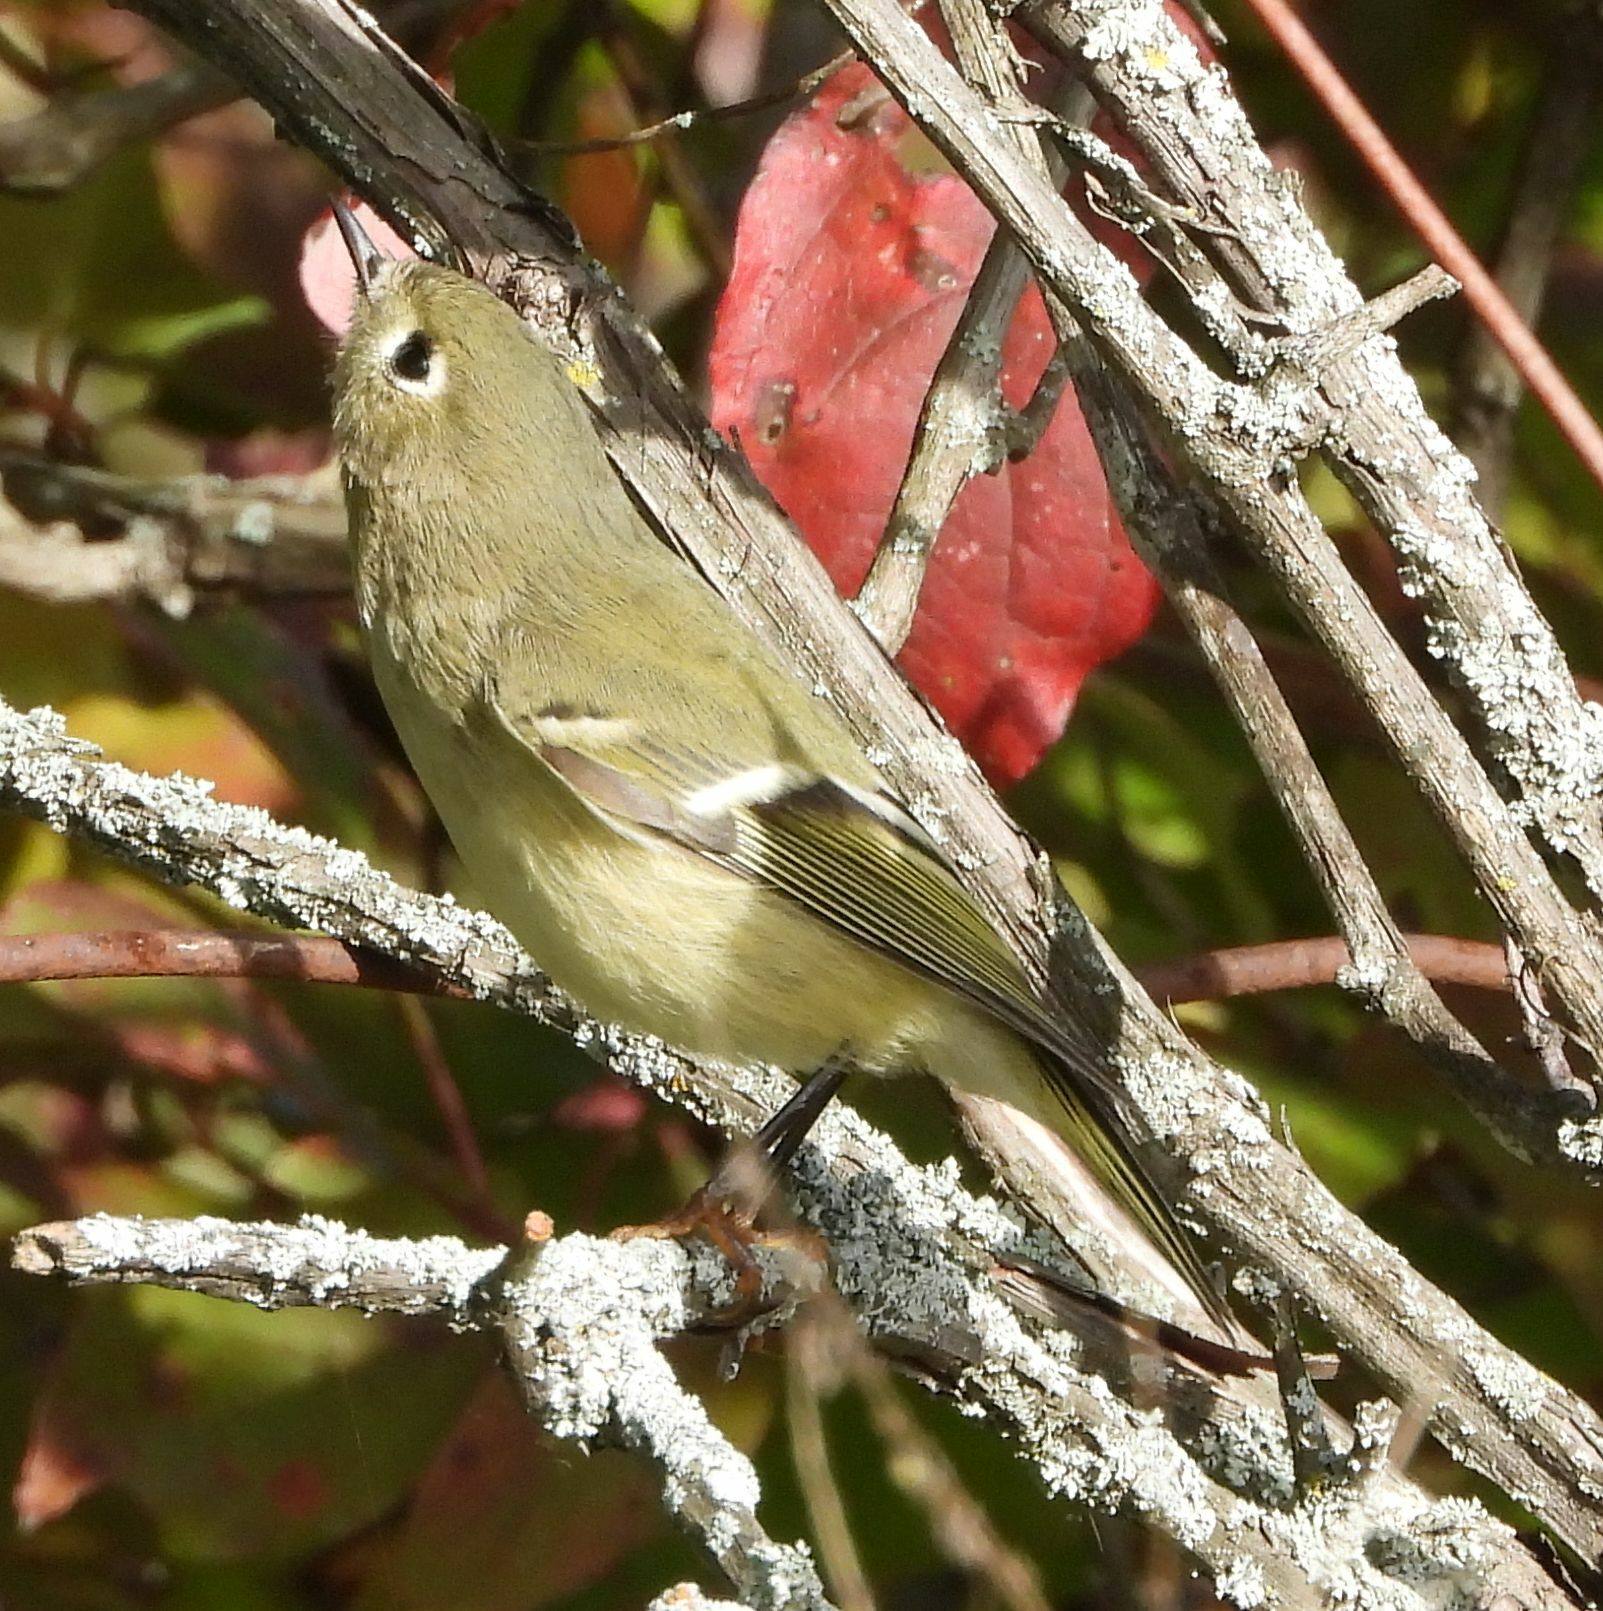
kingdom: Animalia
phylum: Chordata
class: Aves
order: Passeriformes
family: Regulidae
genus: Regulus
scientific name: Regulus calendula
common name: Ruby-crowned kinglet
